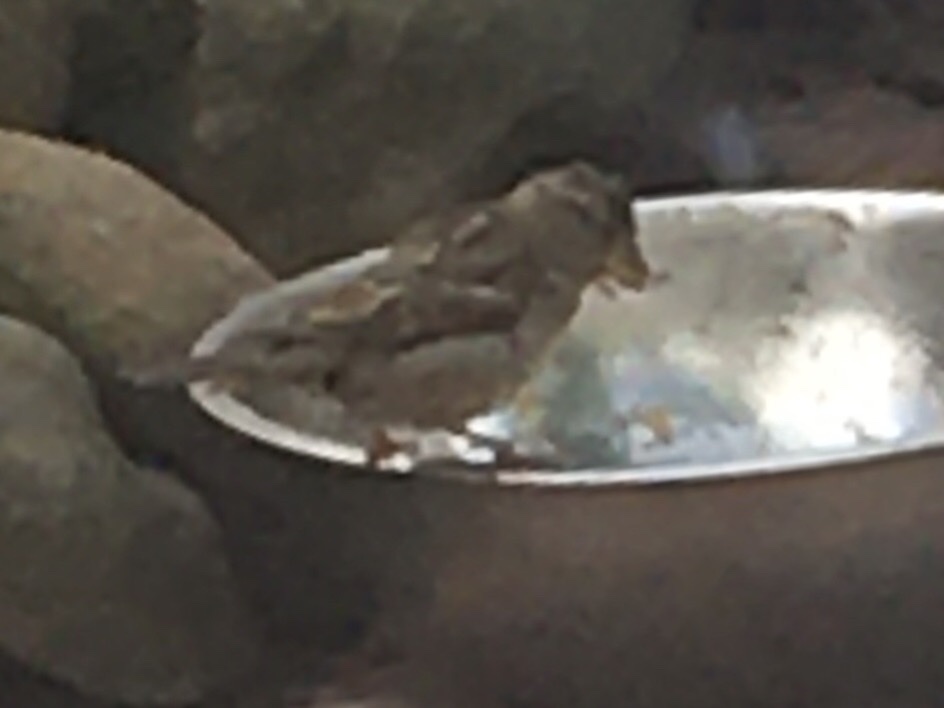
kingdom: Animalia
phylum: Chordata
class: Aves
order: Passeriformes
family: Passeridae
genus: Passer
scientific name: Passer domesticus
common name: House sparrow
